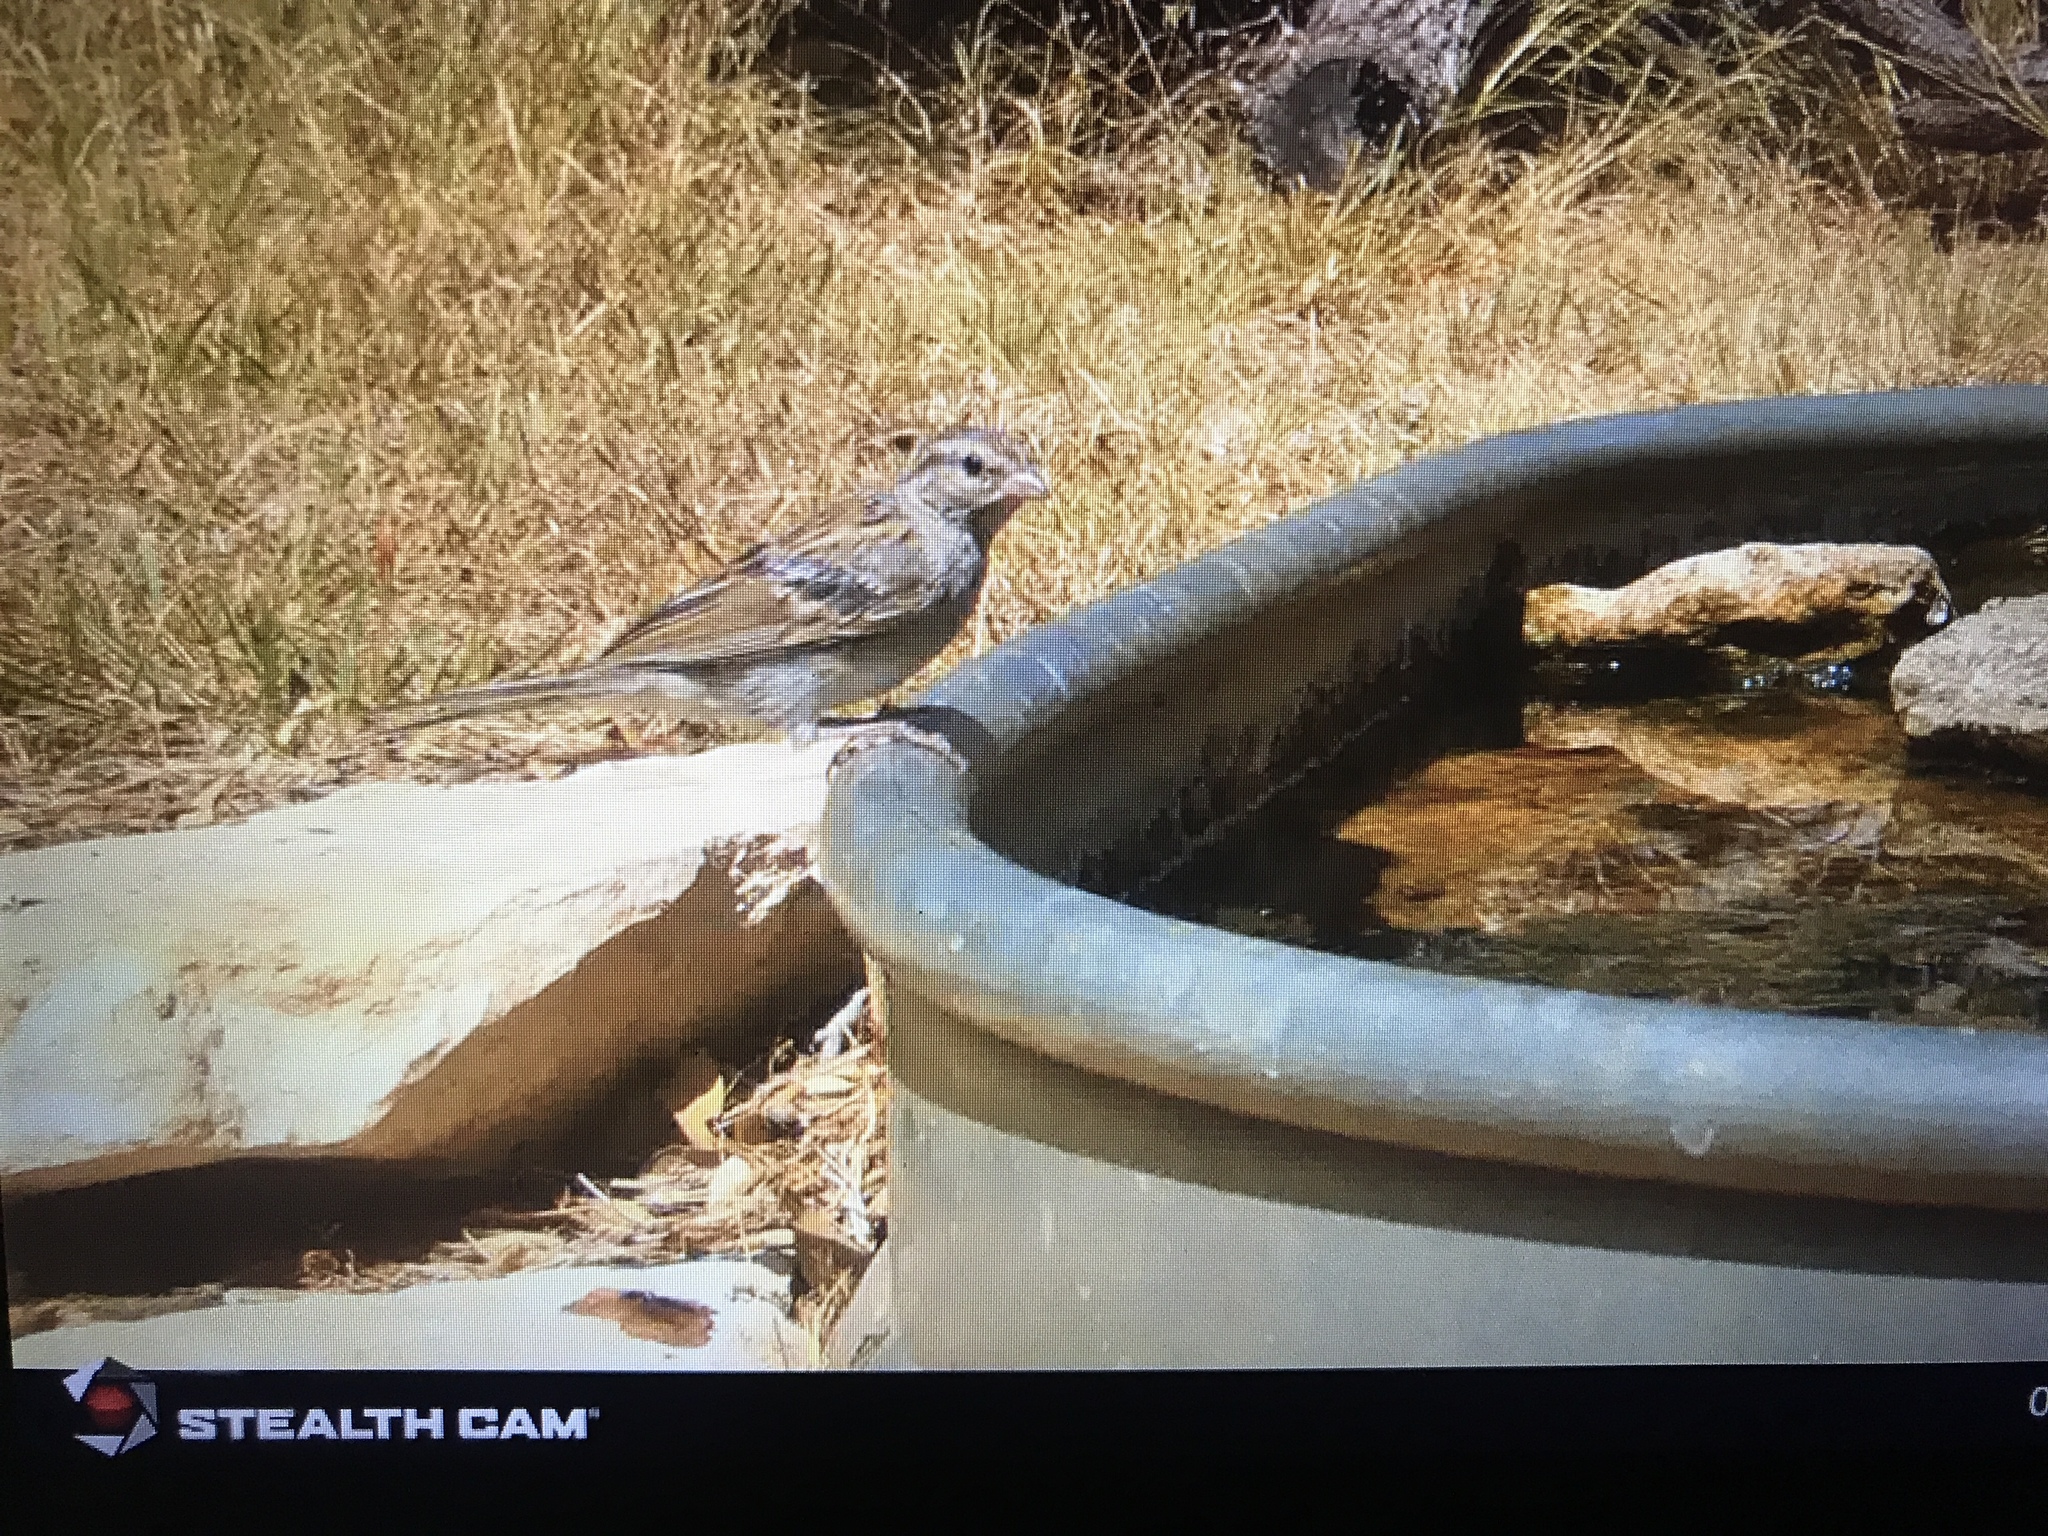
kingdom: Animalia
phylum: Chordata
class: Aves
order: Passeriformes
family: Passerellidae
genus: Spizella
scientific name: Spizella passerina
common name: Chipping sparrow
